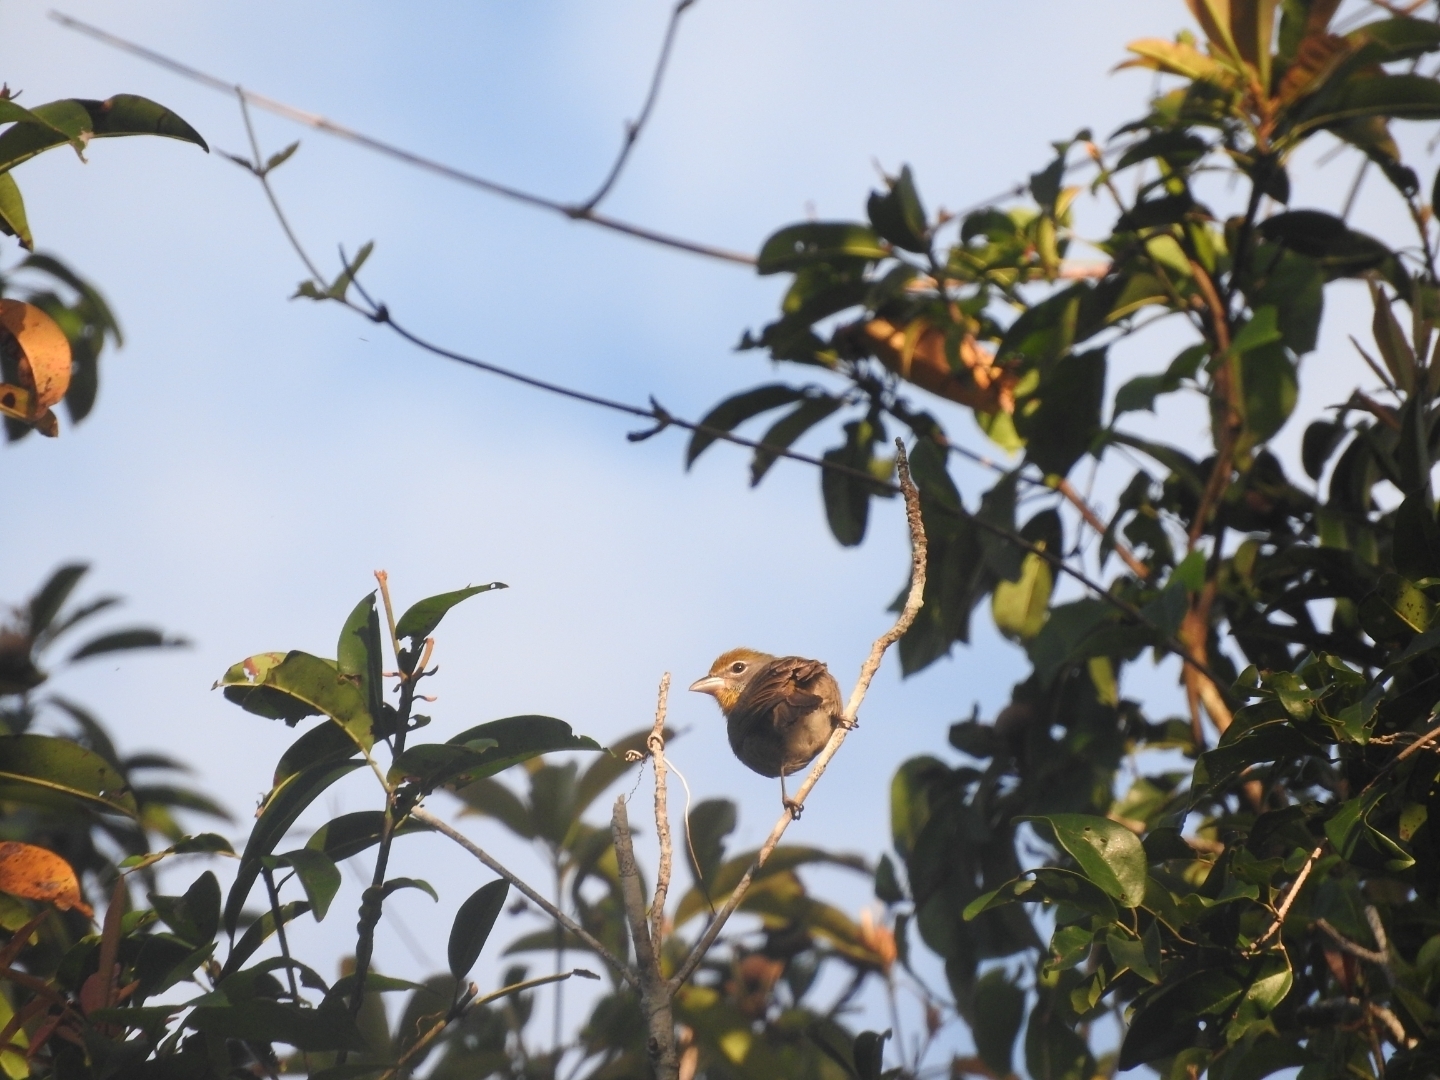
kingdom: Animalia
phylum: Chordata
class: Aves
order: Passeriformes
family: Cardinalidae
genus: Piranga
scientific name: Piranga roseogularis
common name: Rose-throated tanager
